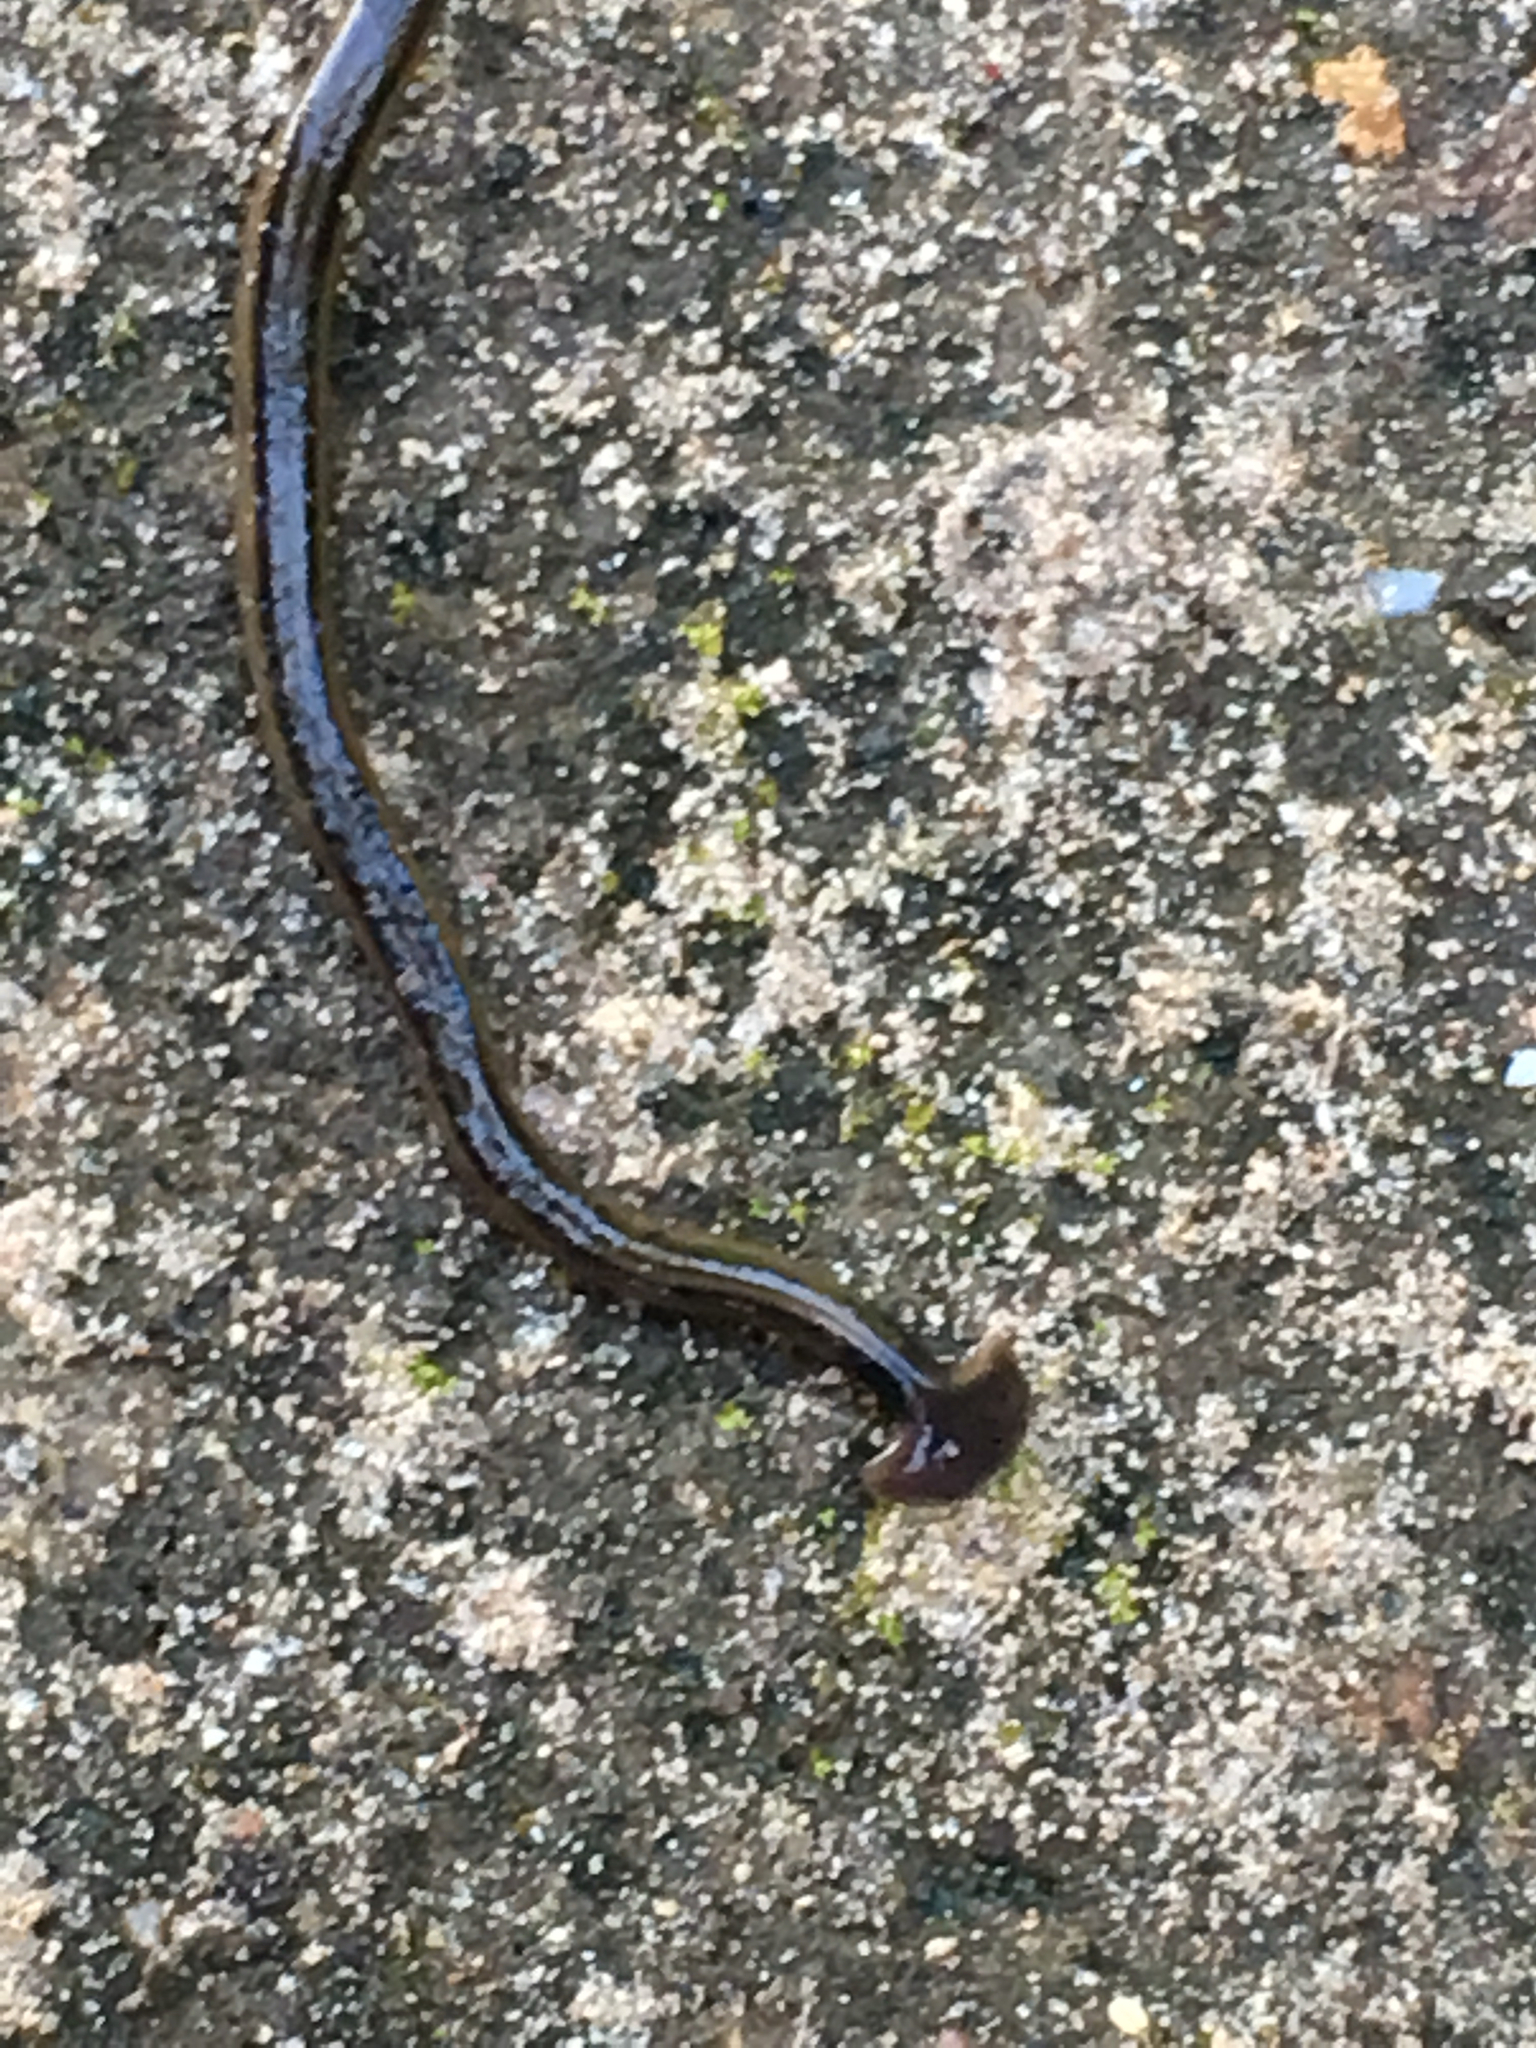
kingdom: Animalia
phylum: Platyhelminthes
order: Tricladida
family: Geoplanidae
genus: Bipalium
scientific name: Bipalium kewense
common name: Hammerhead flatworm
